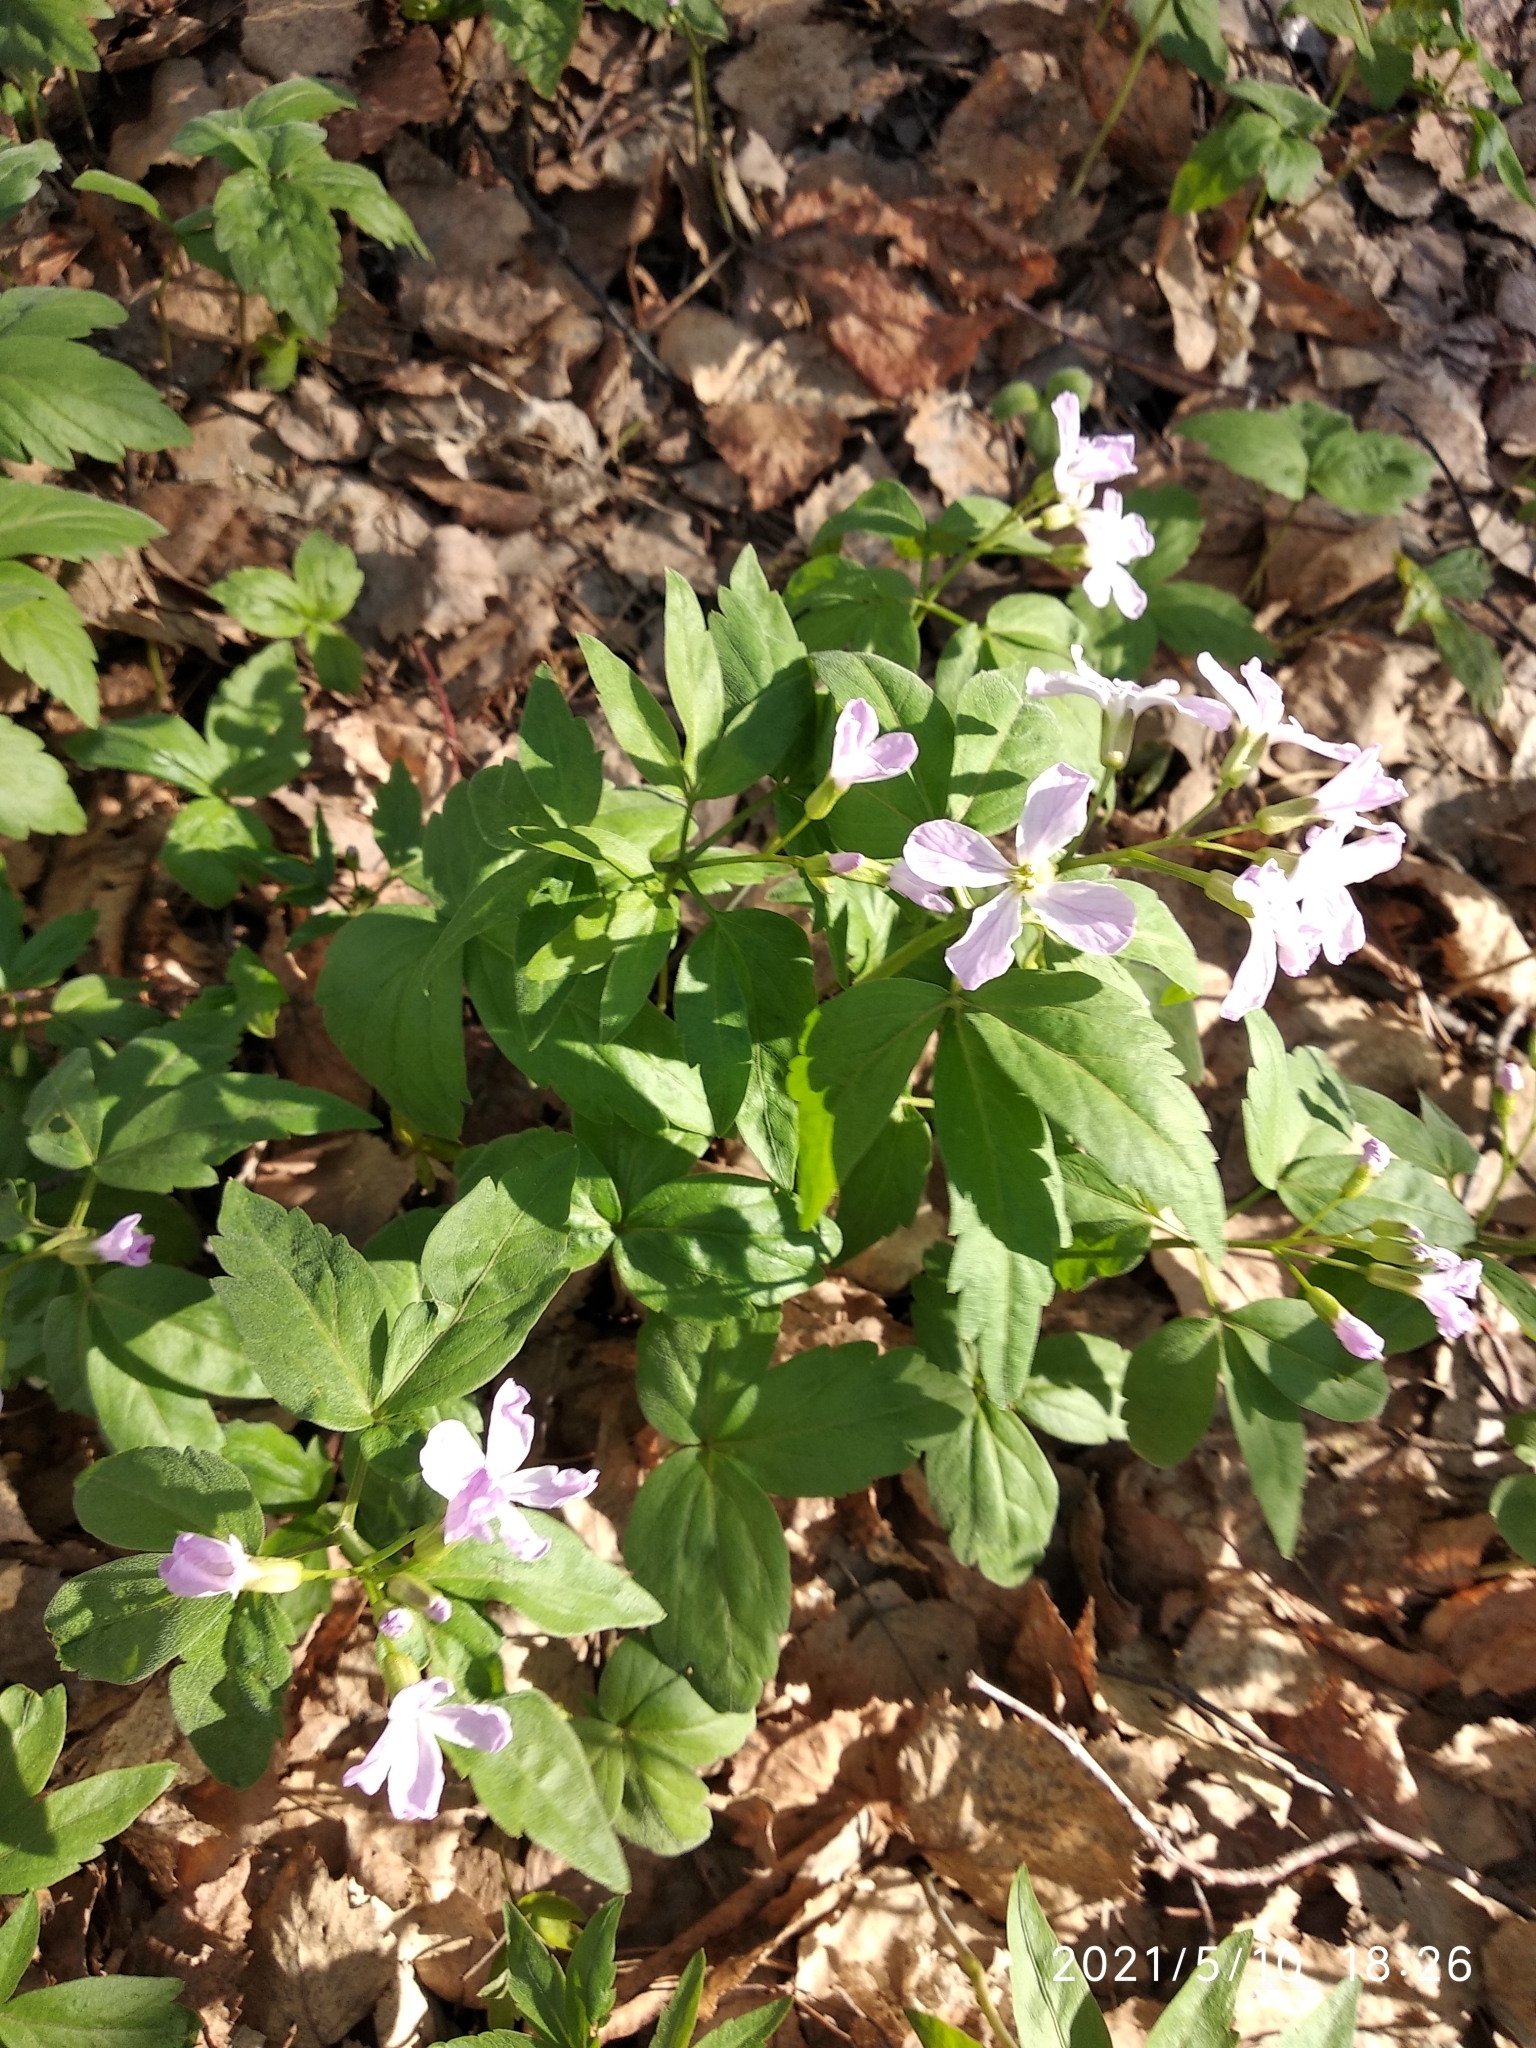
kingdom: Plantae
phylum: Tracheophyta
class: Magnoliopsida
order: Brassicales
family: Brassicaceae
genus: Cardamine
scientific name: Cardamine altaica
